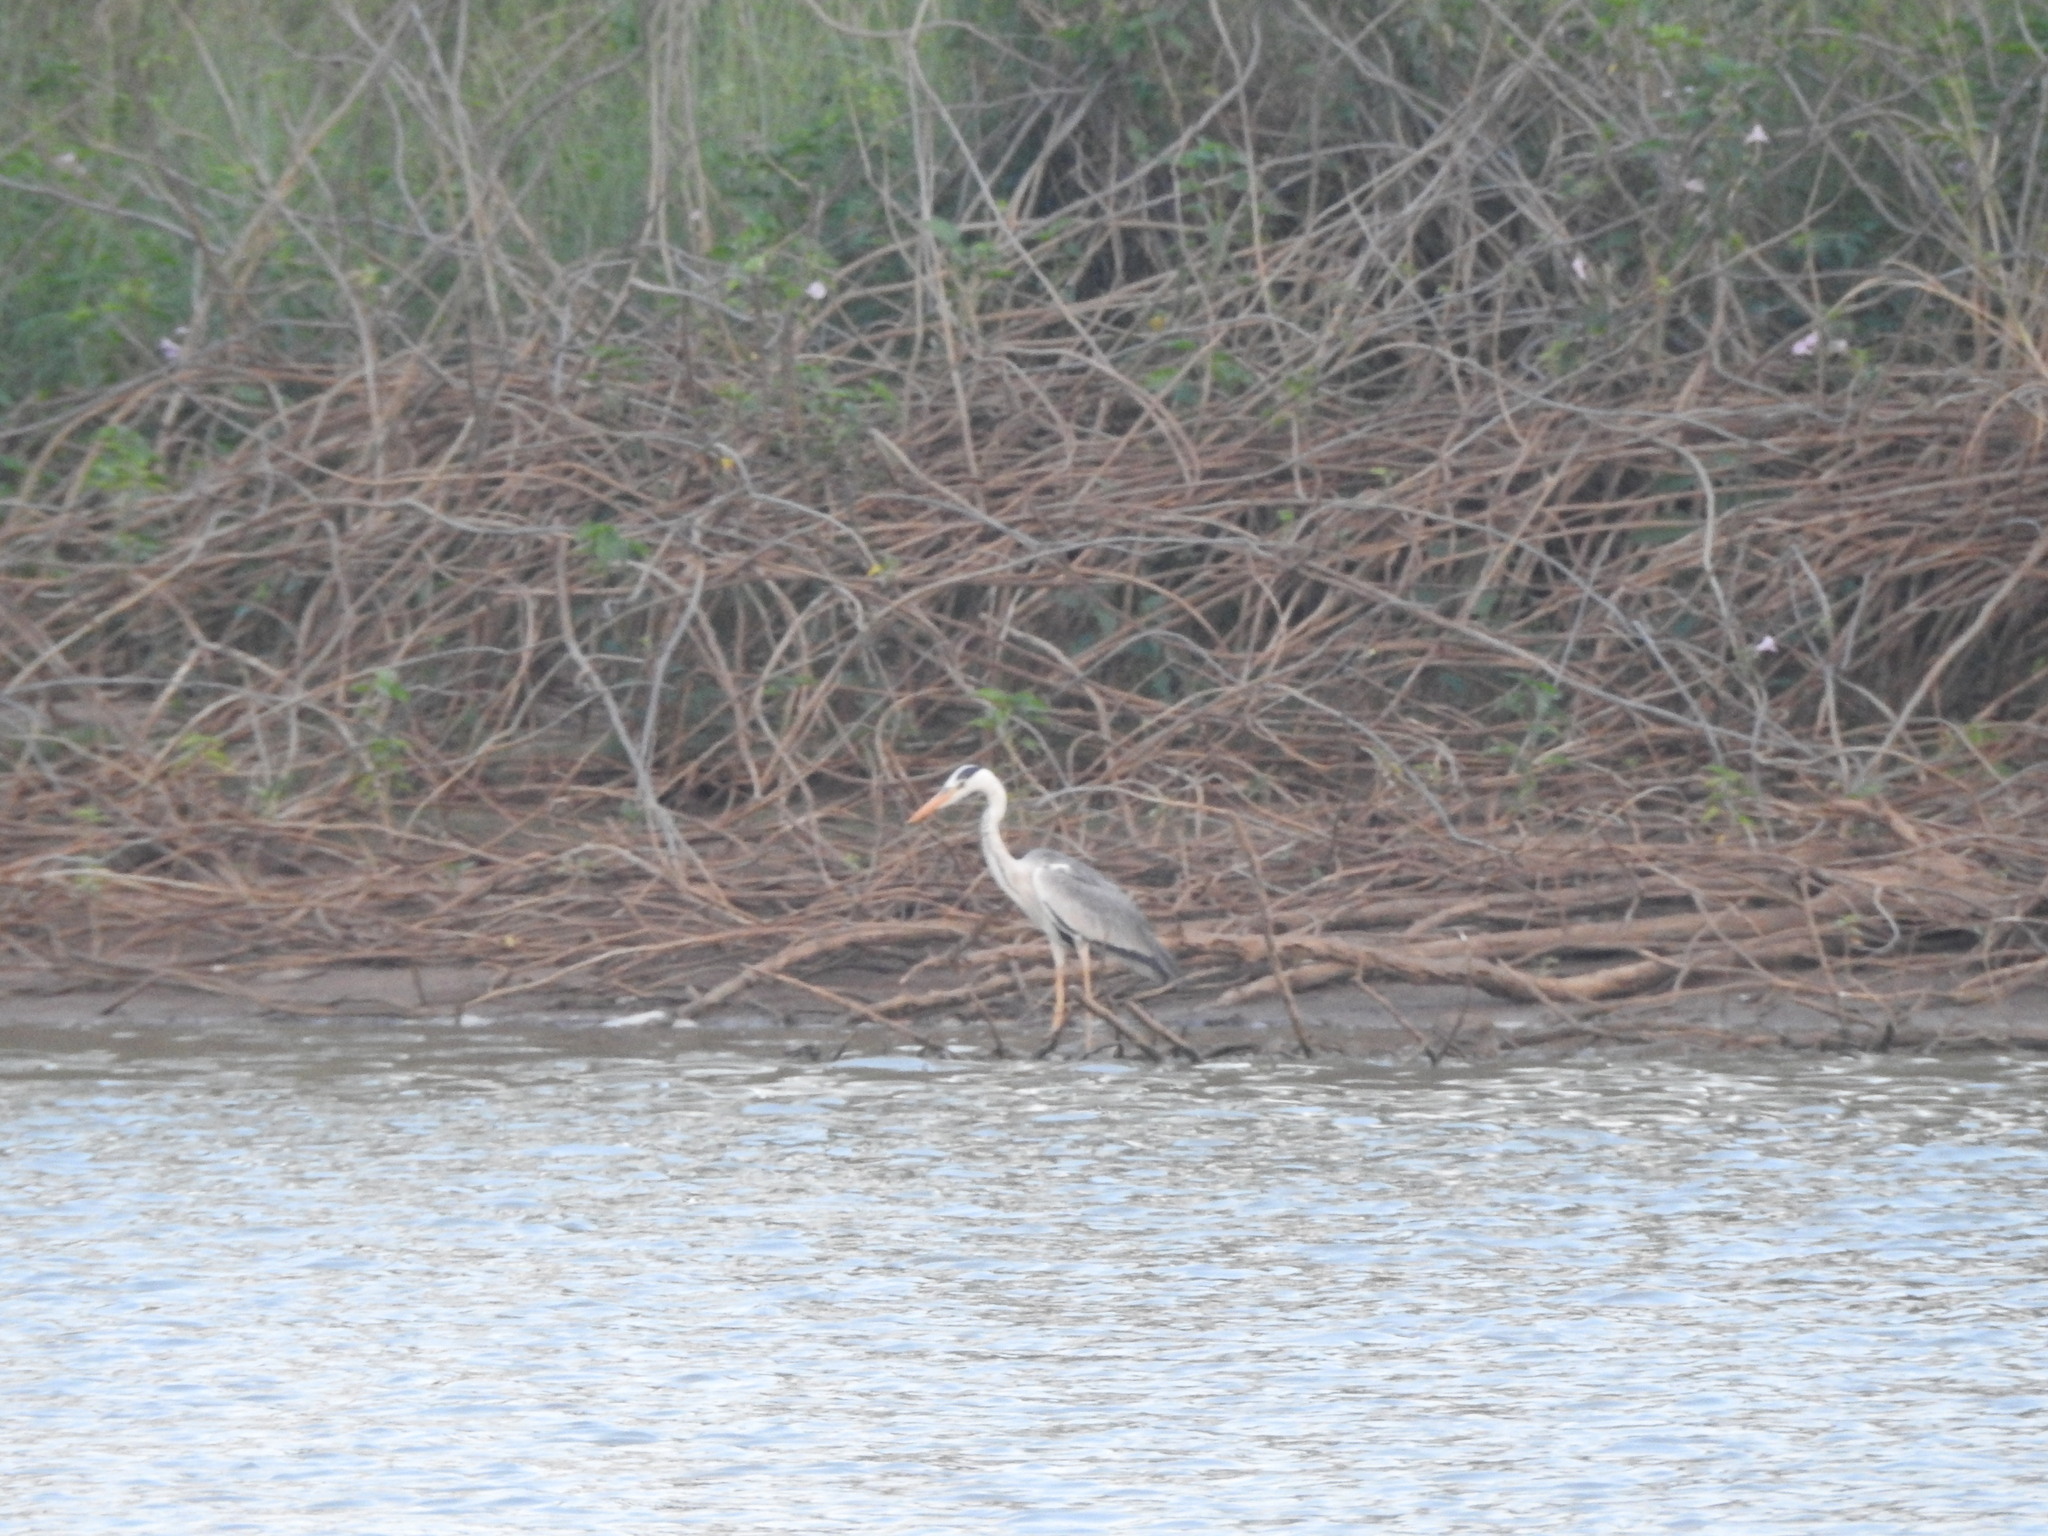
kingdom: Animalia
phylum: Chordata
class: Aves
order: Pelecaniformes
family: Ardeidae
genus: Ardea
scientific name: Ardea cinerea
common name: Grey heron
